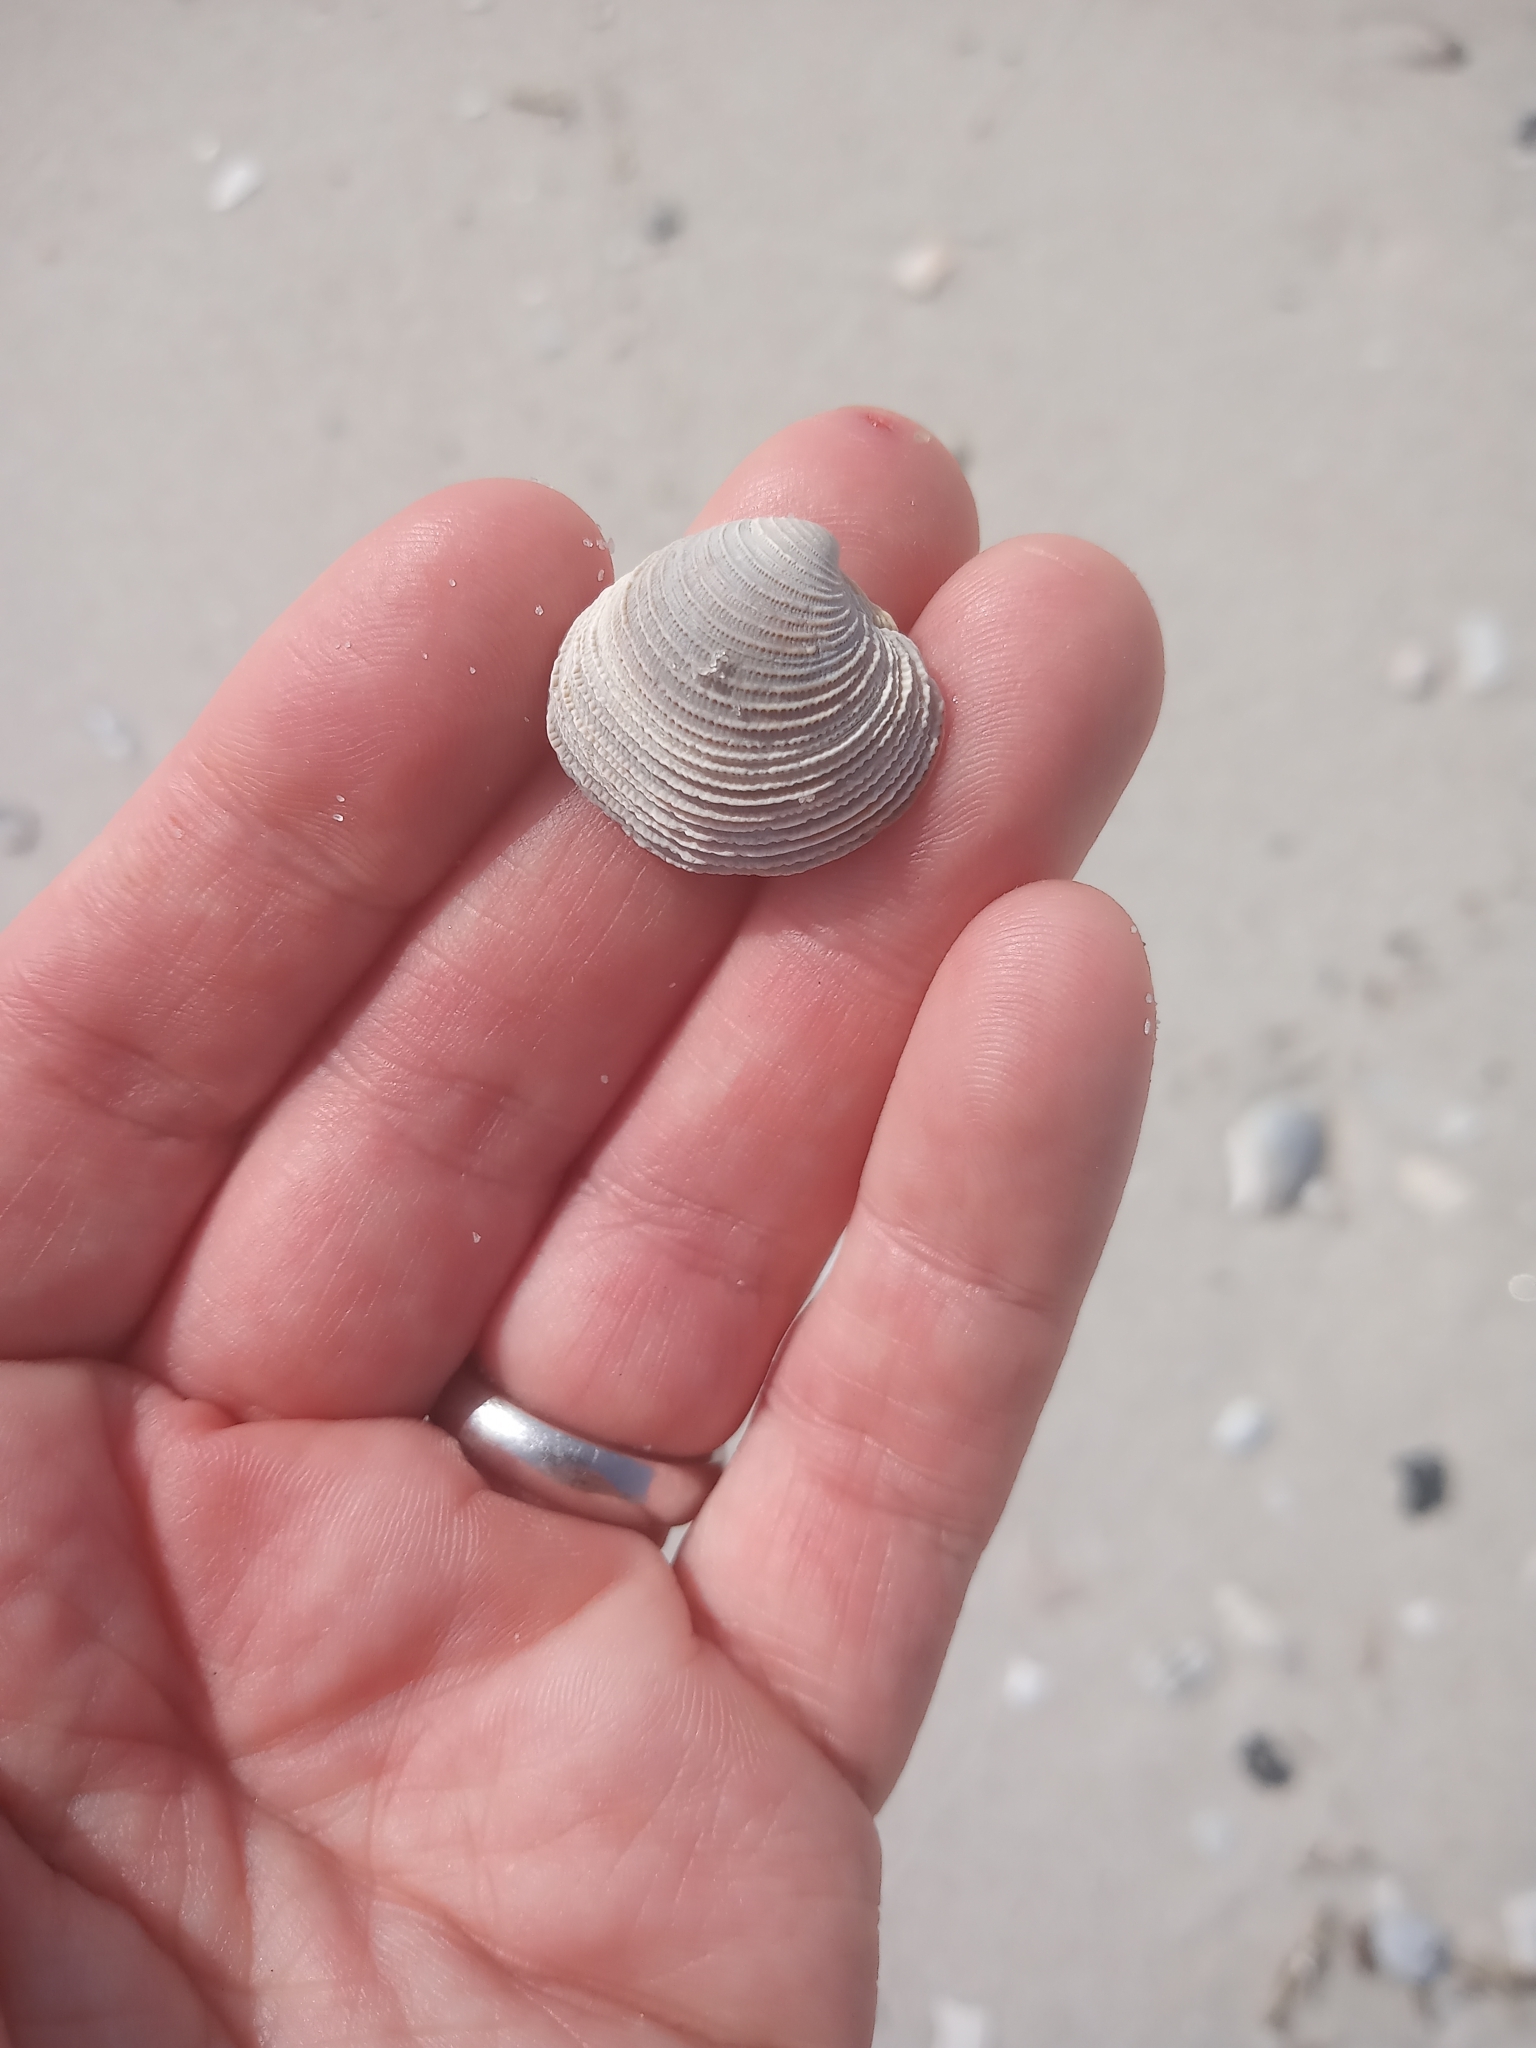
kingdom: Animalia
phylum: Mollusca
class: Bivalvia
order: Venerida
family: Veneridae
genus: Chionopsis
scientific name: Chionopsis intapurpurea
